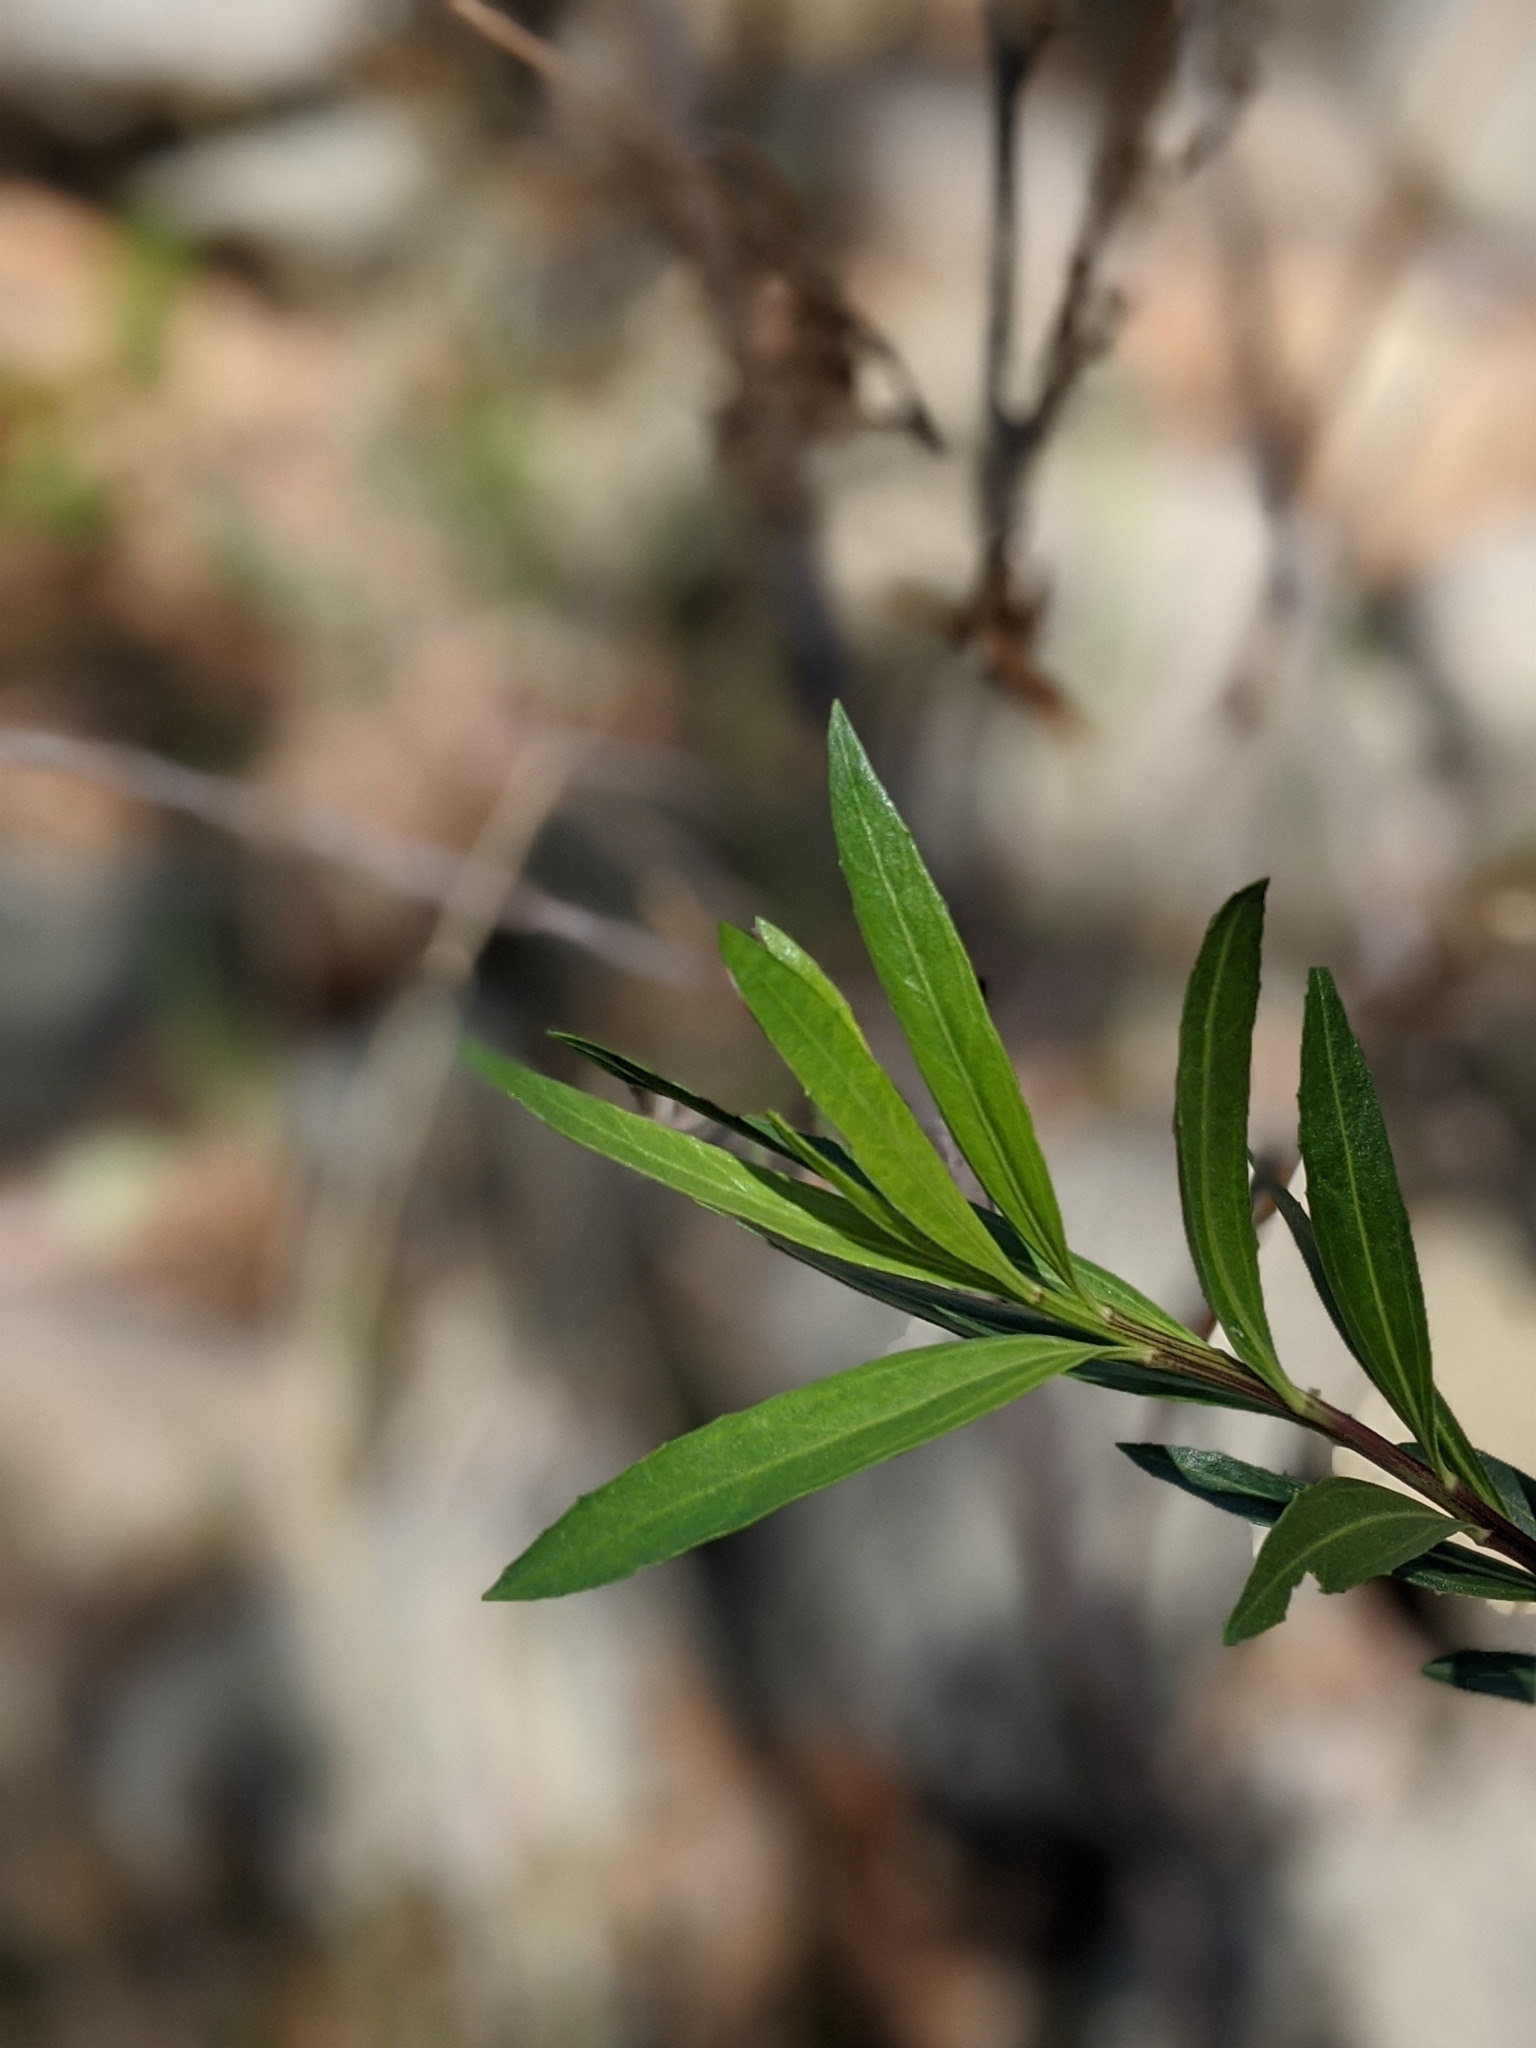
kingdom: Plantae
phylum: Tracheophyta
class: Magnoliopsida
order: Asterales
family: Asteraceae
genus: Baccharis
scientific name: Baccharis salicifolia
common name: Sticky baccharis
